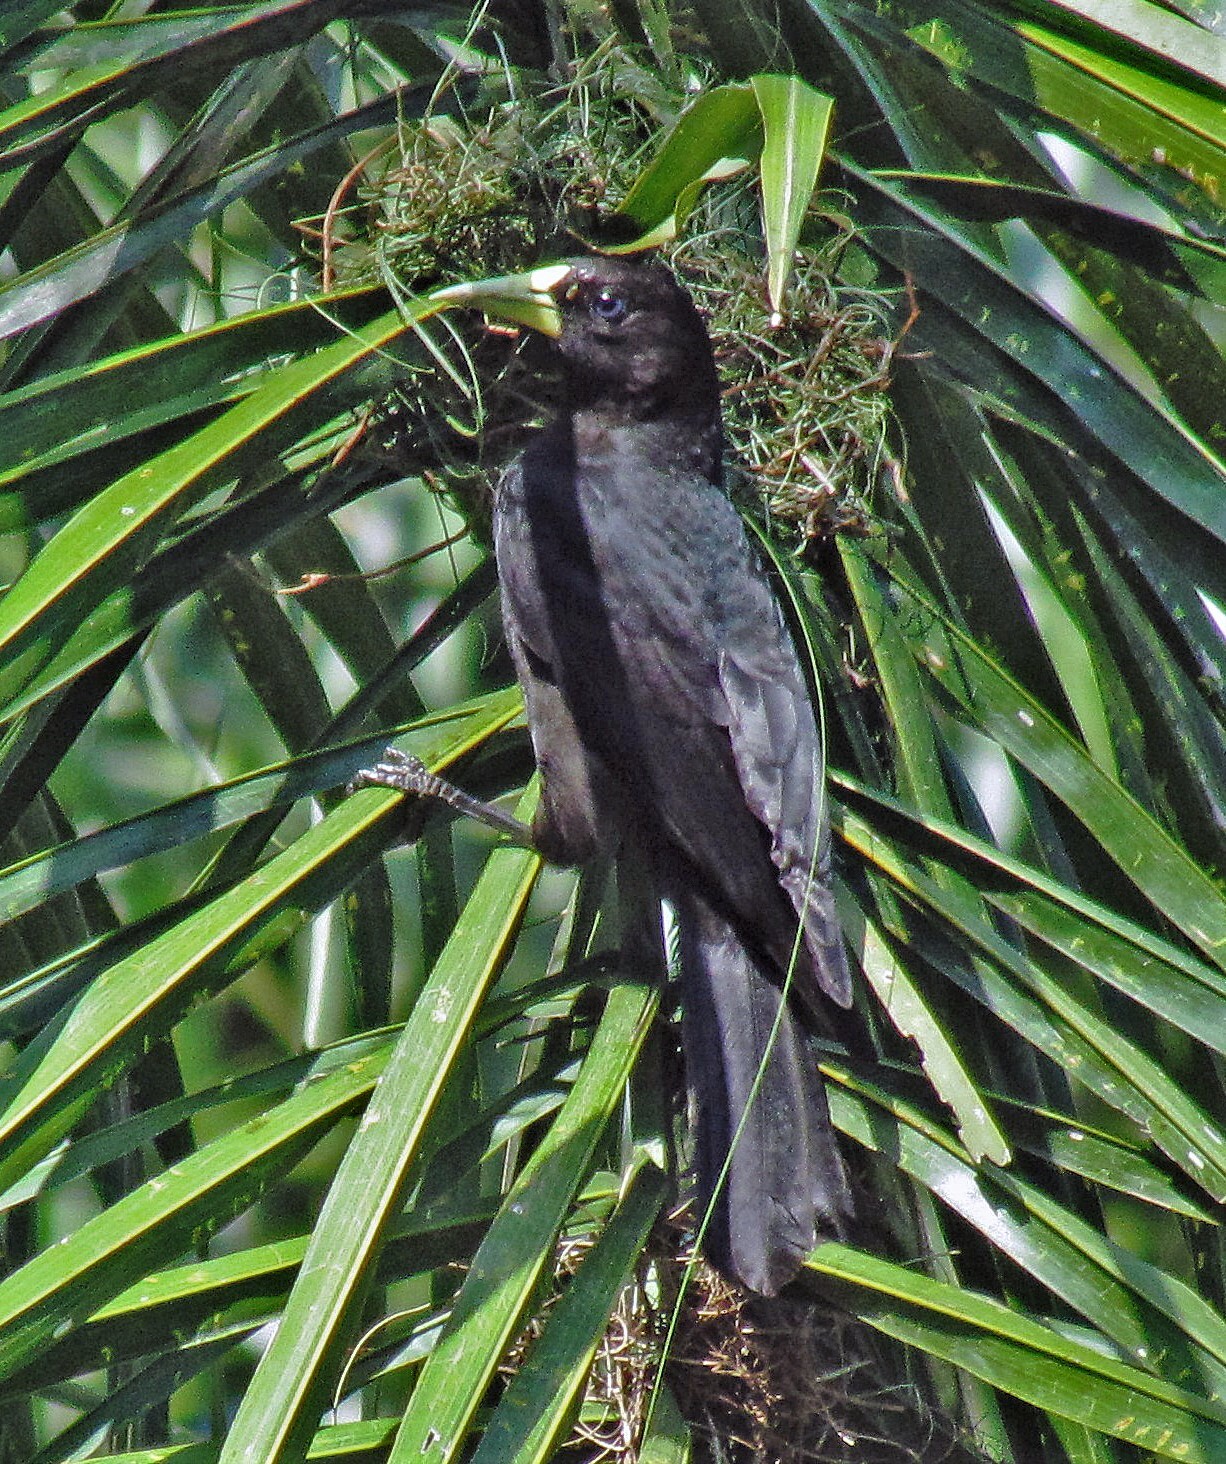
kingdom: Animalia
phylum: Chordata
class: Aves
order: Passeriformes
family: Icteridae
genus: Cacicus
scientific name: Cacicus haemorrhous
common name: Red-rumped cacique
